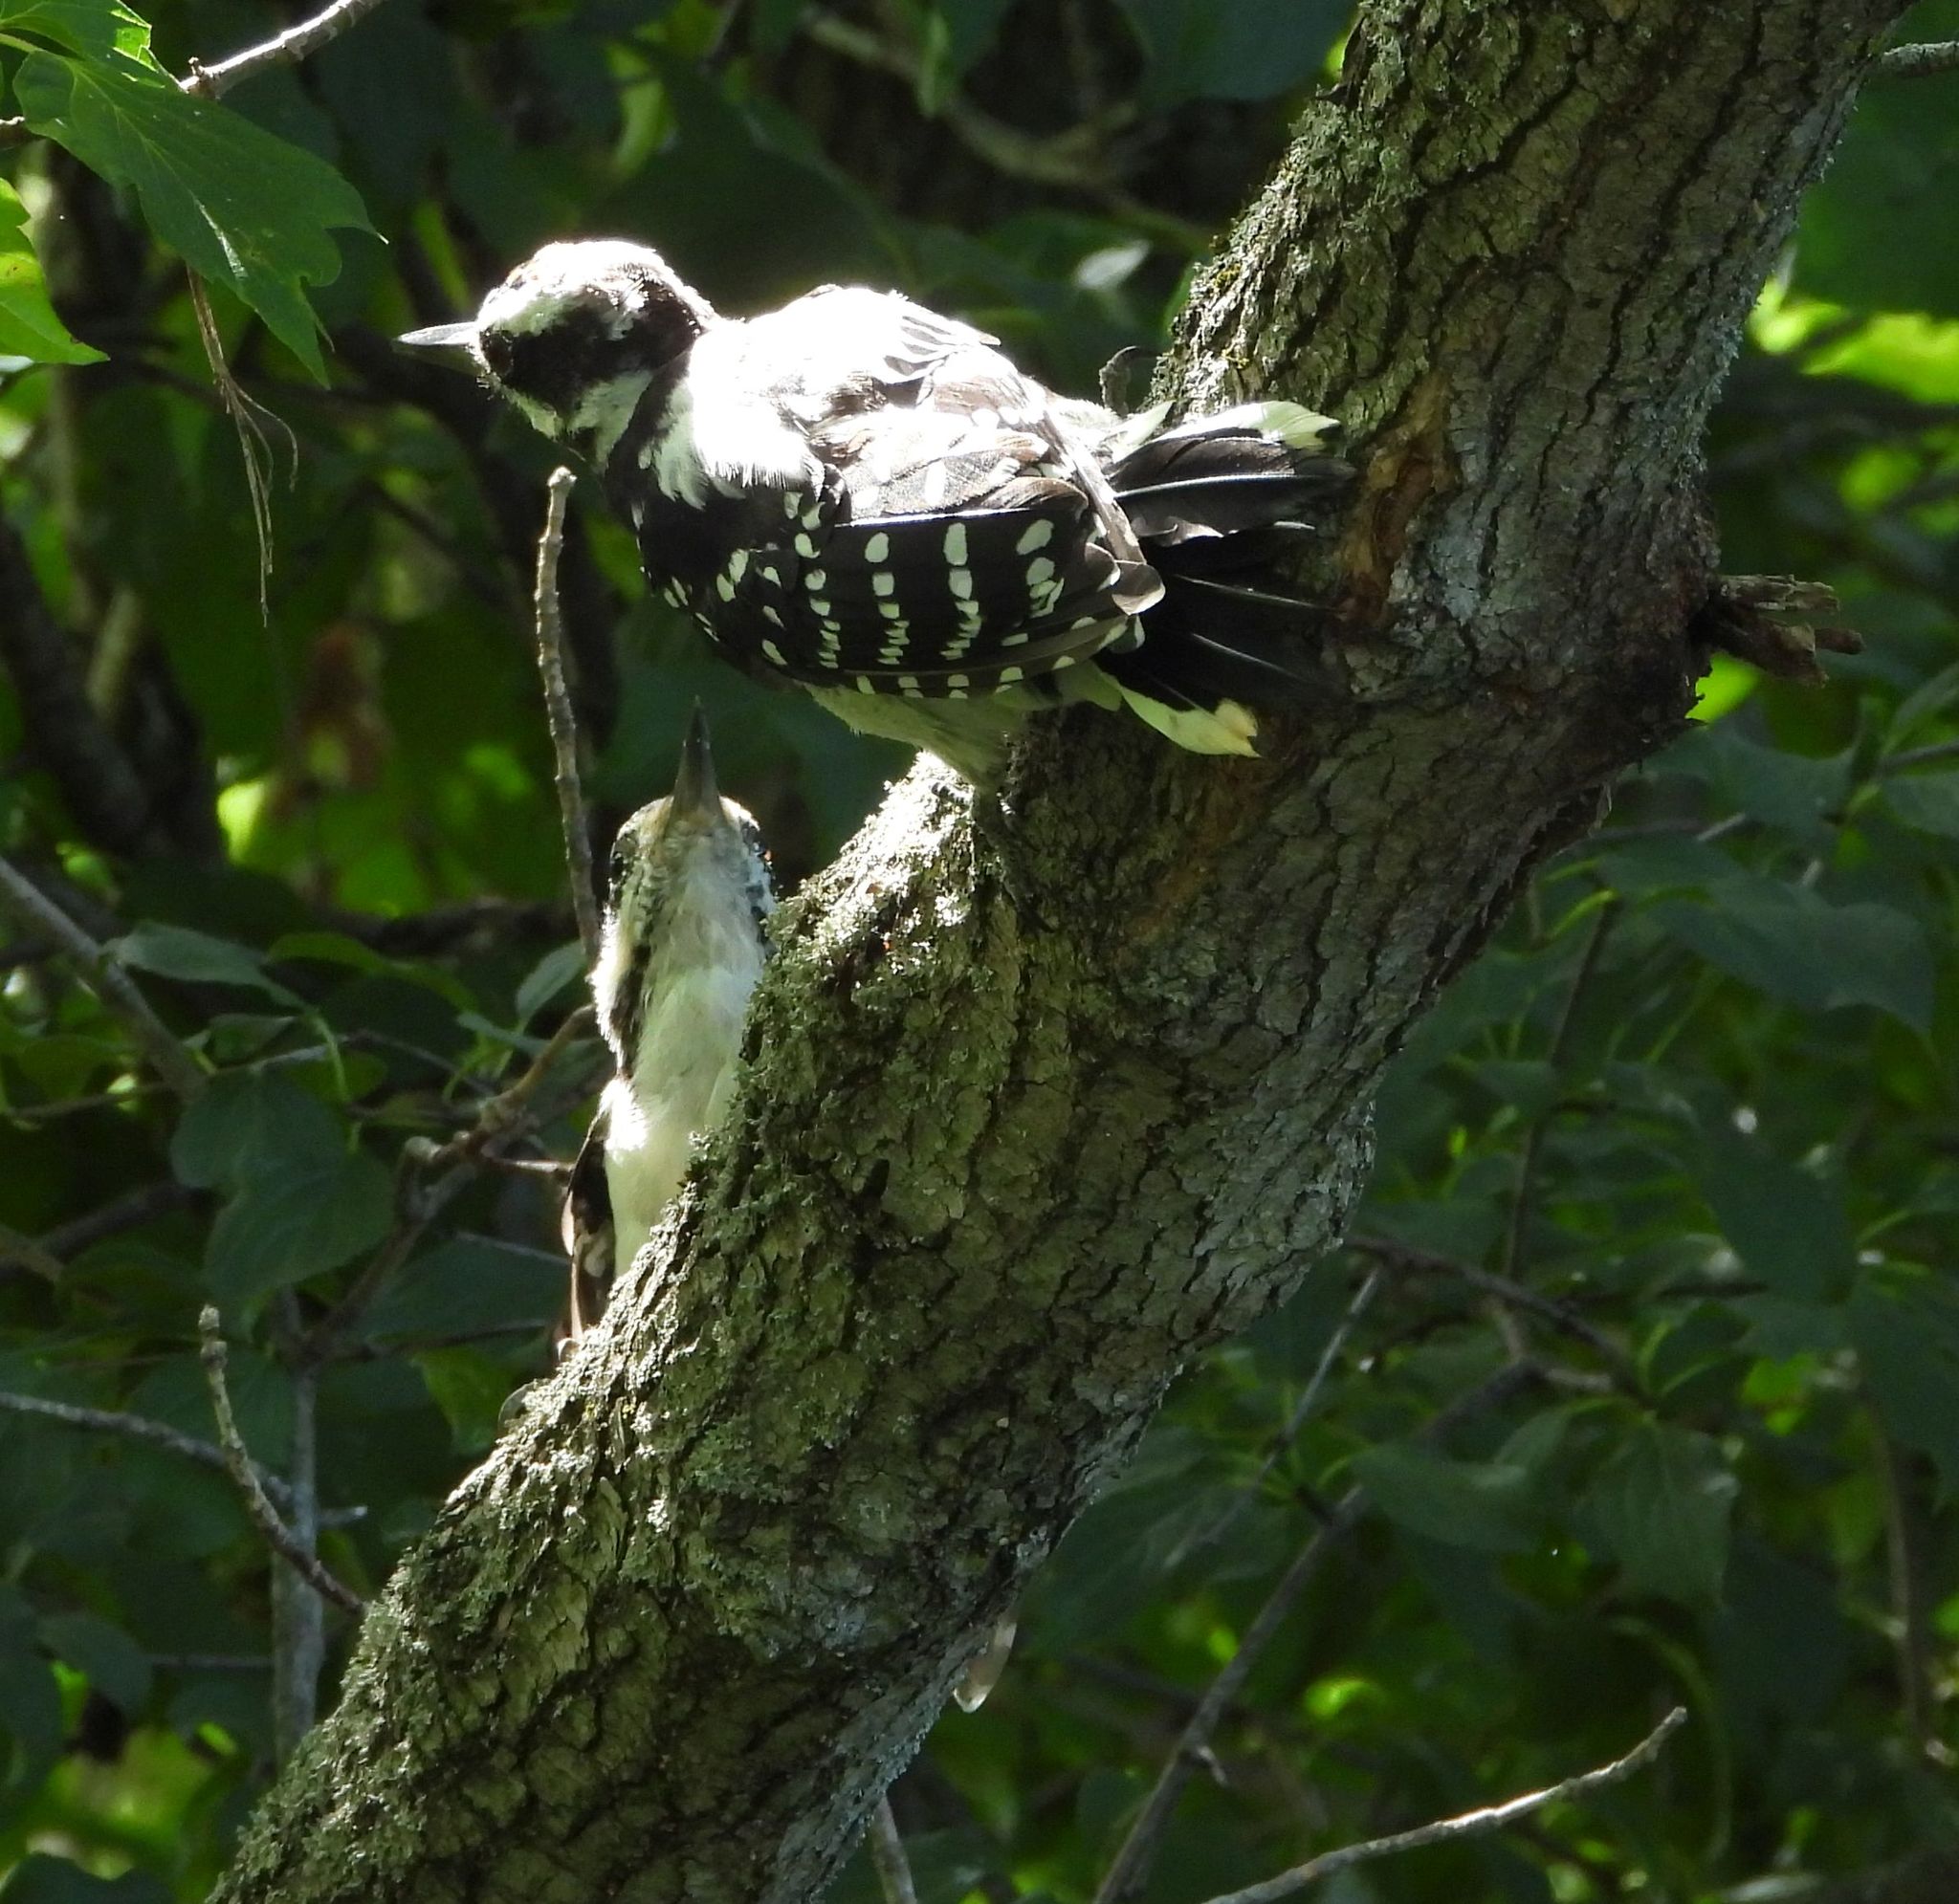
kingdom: Animalia
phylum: Chordata
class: Aves
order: Piciformes
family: Picidae
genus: Leuconotopicus
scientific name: Leuconotopicus villosus
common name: Hairy woodpecker
